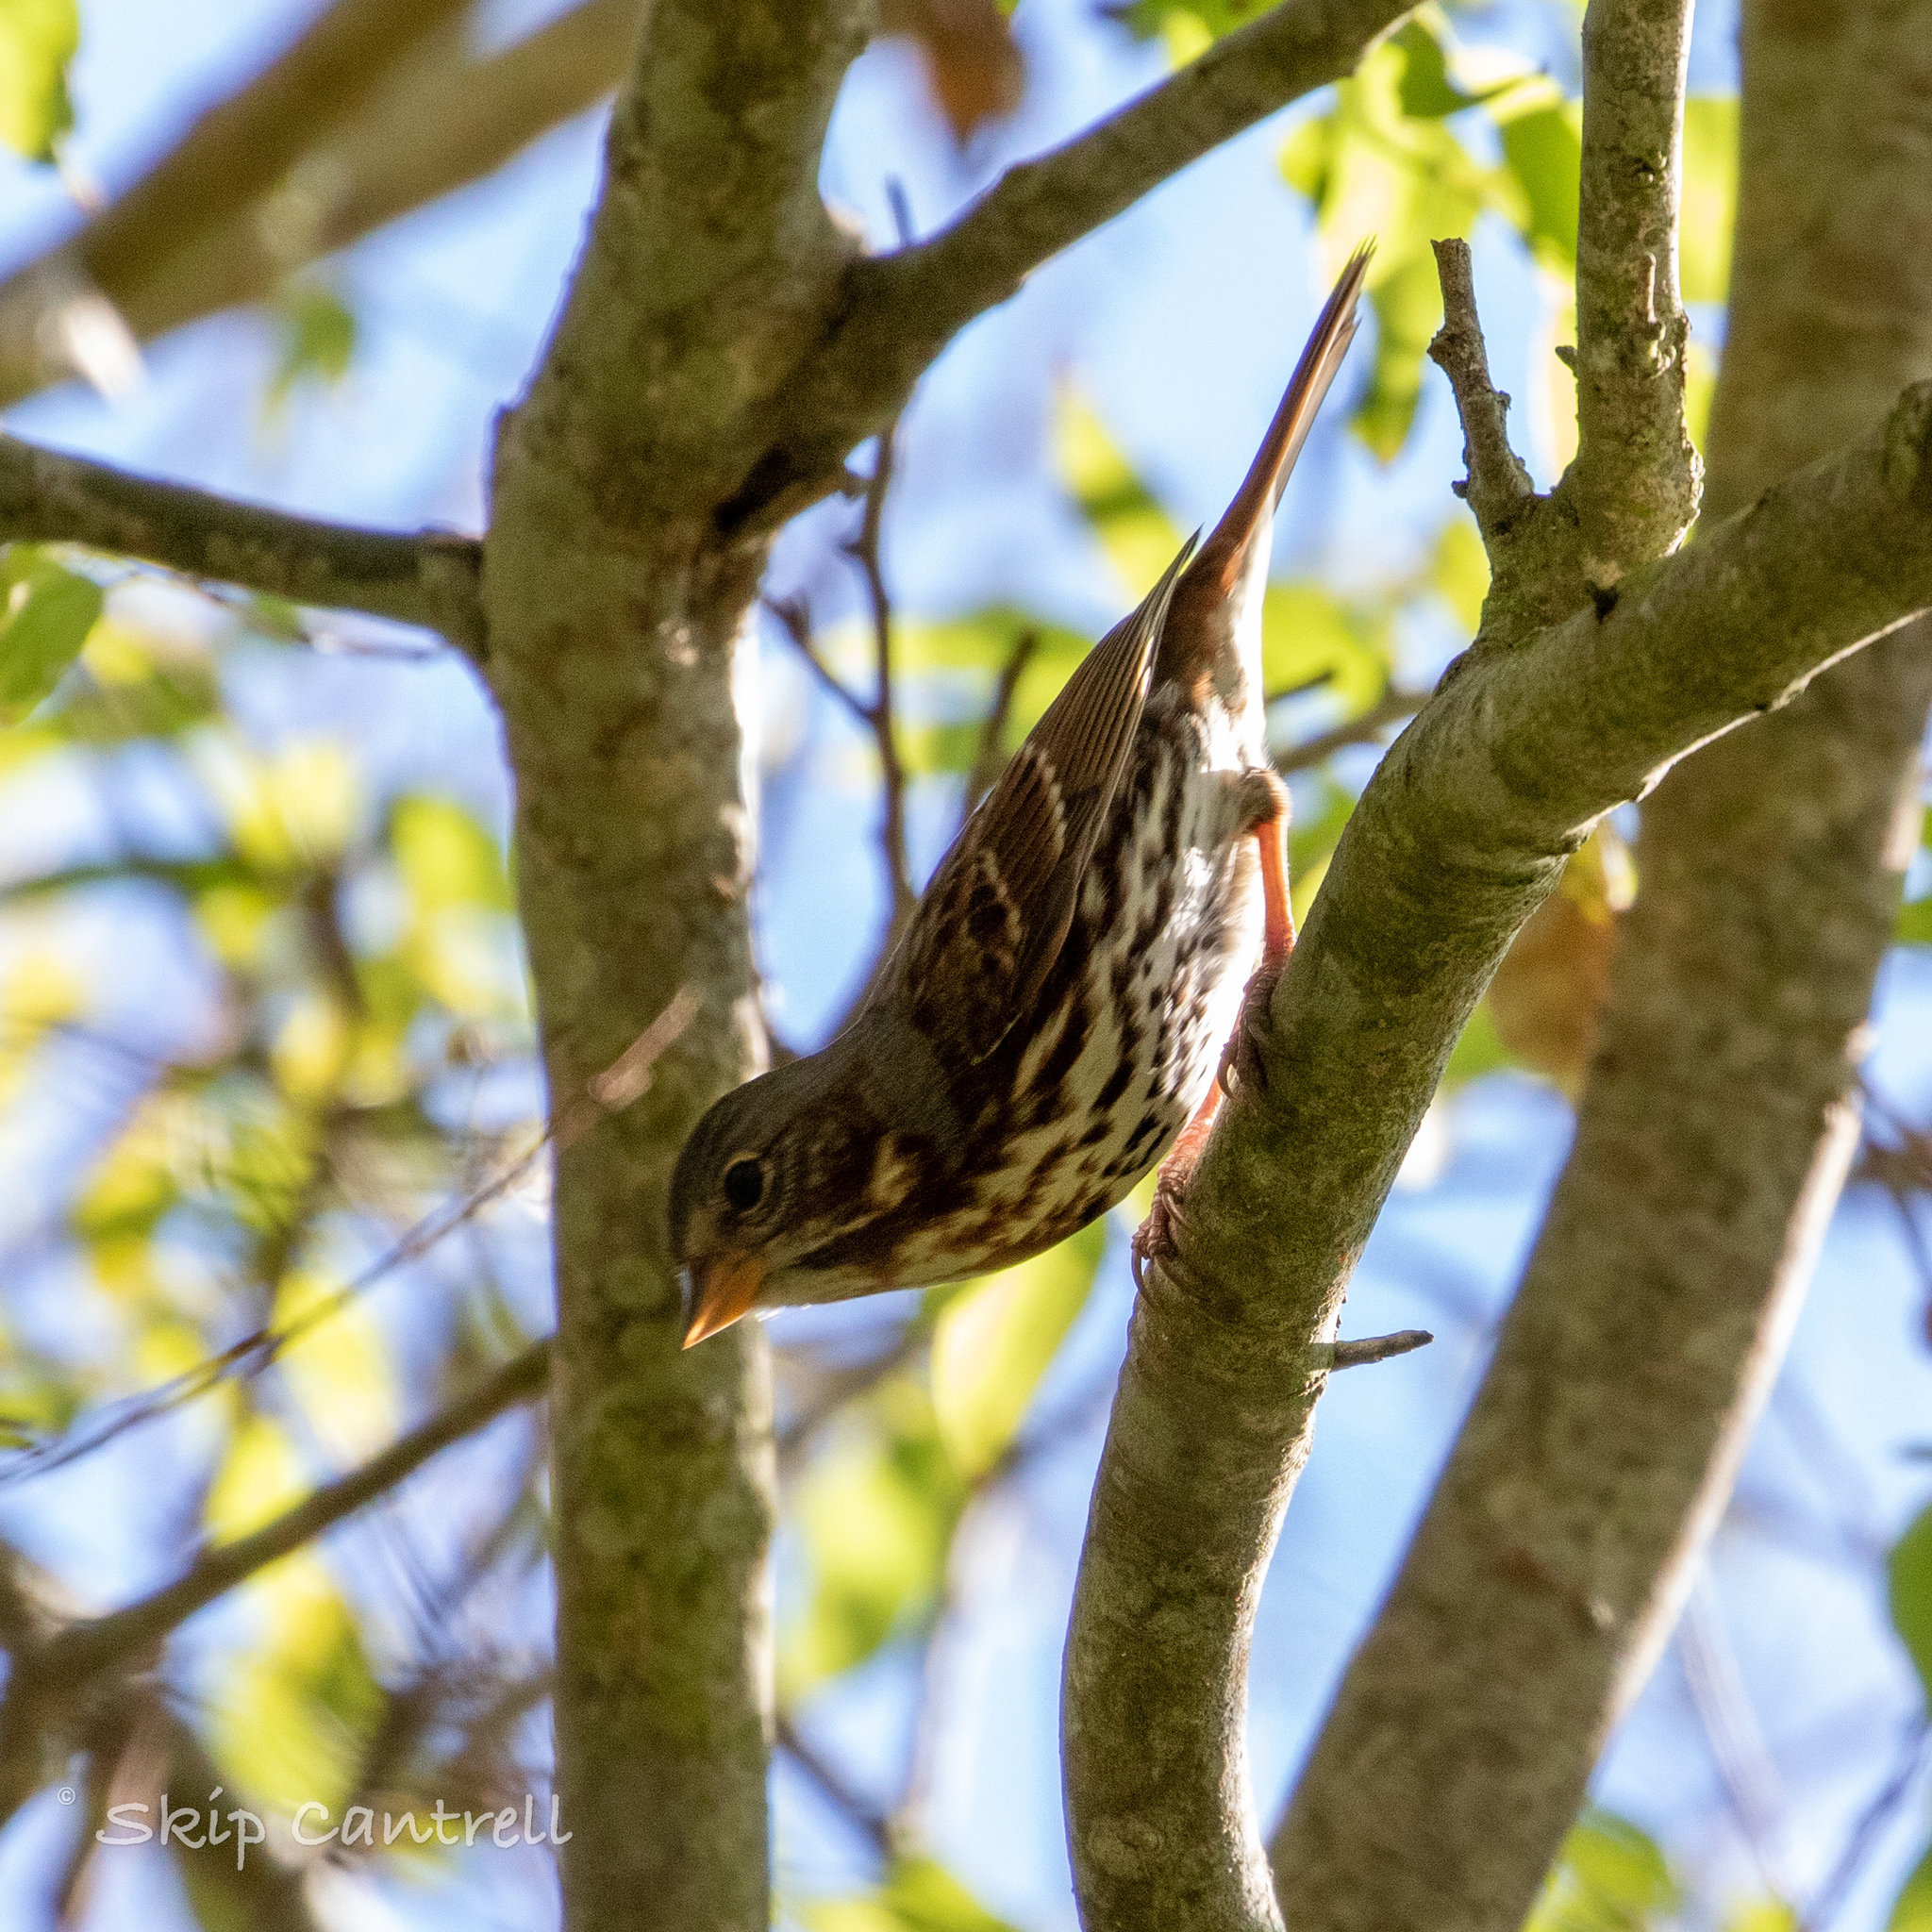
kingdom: Animalia
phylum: Chordata
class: Aves
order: Passeriformes
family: Passerellidae
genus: Passerella
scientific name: Passerella iliaca
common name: Fox sparrow
